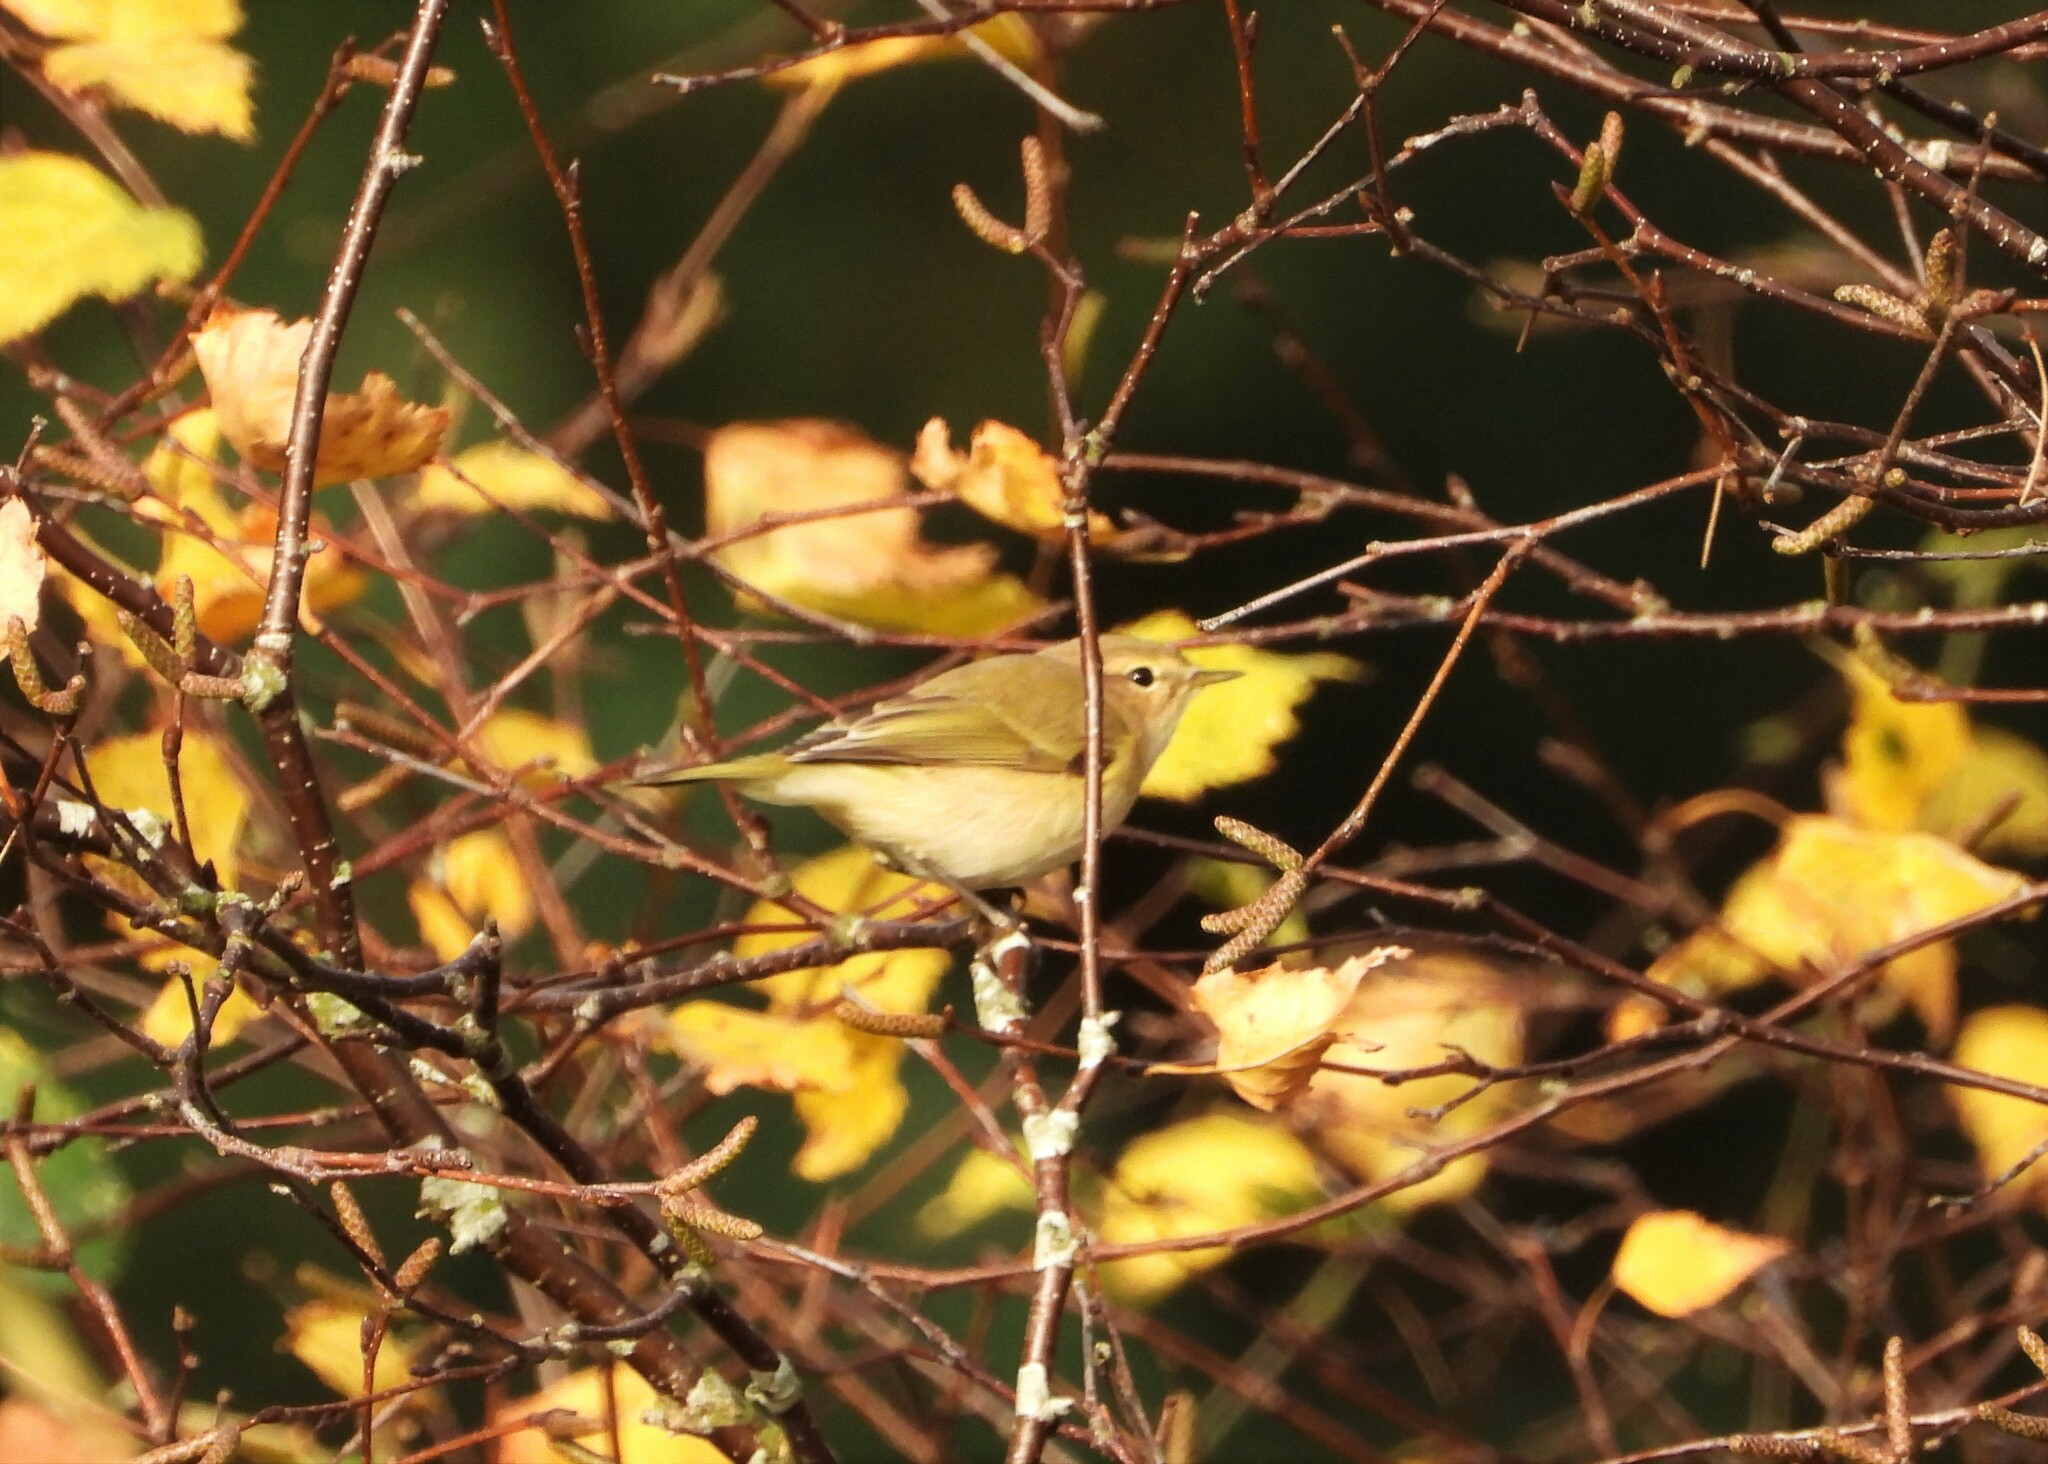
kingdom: Animalia
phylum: Chordata
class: Aves
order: Passeriformes
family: Phylloscopidae
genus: Phylloscopus
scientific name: Phylloscopus collybita
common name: Common chiffchaff
